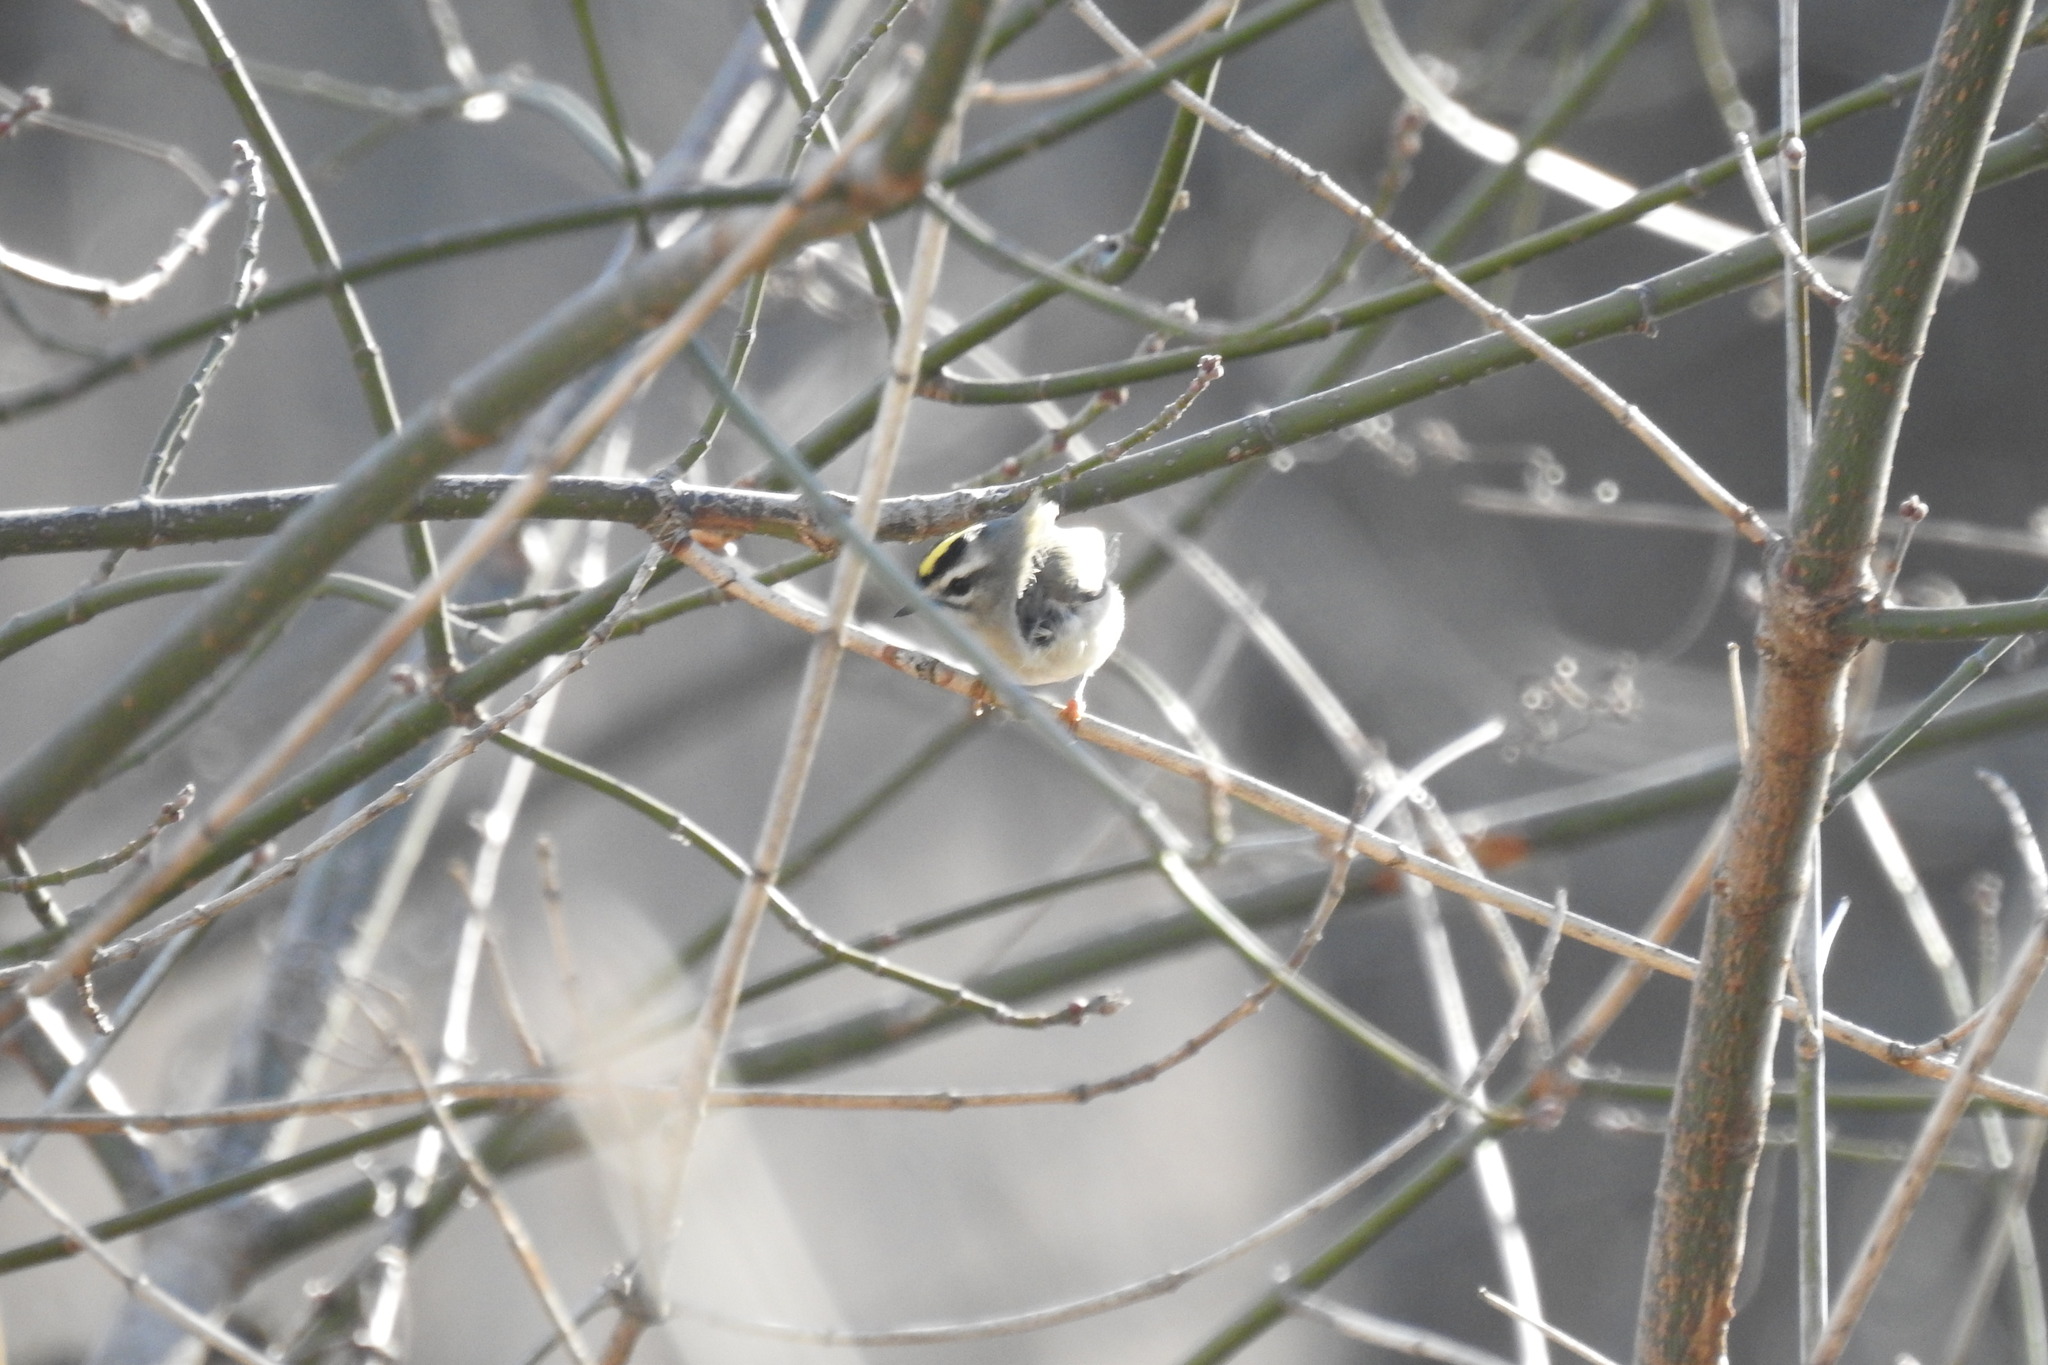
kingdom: Animalia
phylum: Chordata
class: Aves
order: Passeriformes
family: Regulidae
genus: Regulus
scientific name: Regulus satrapa
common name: Golden-crowned kinglet
